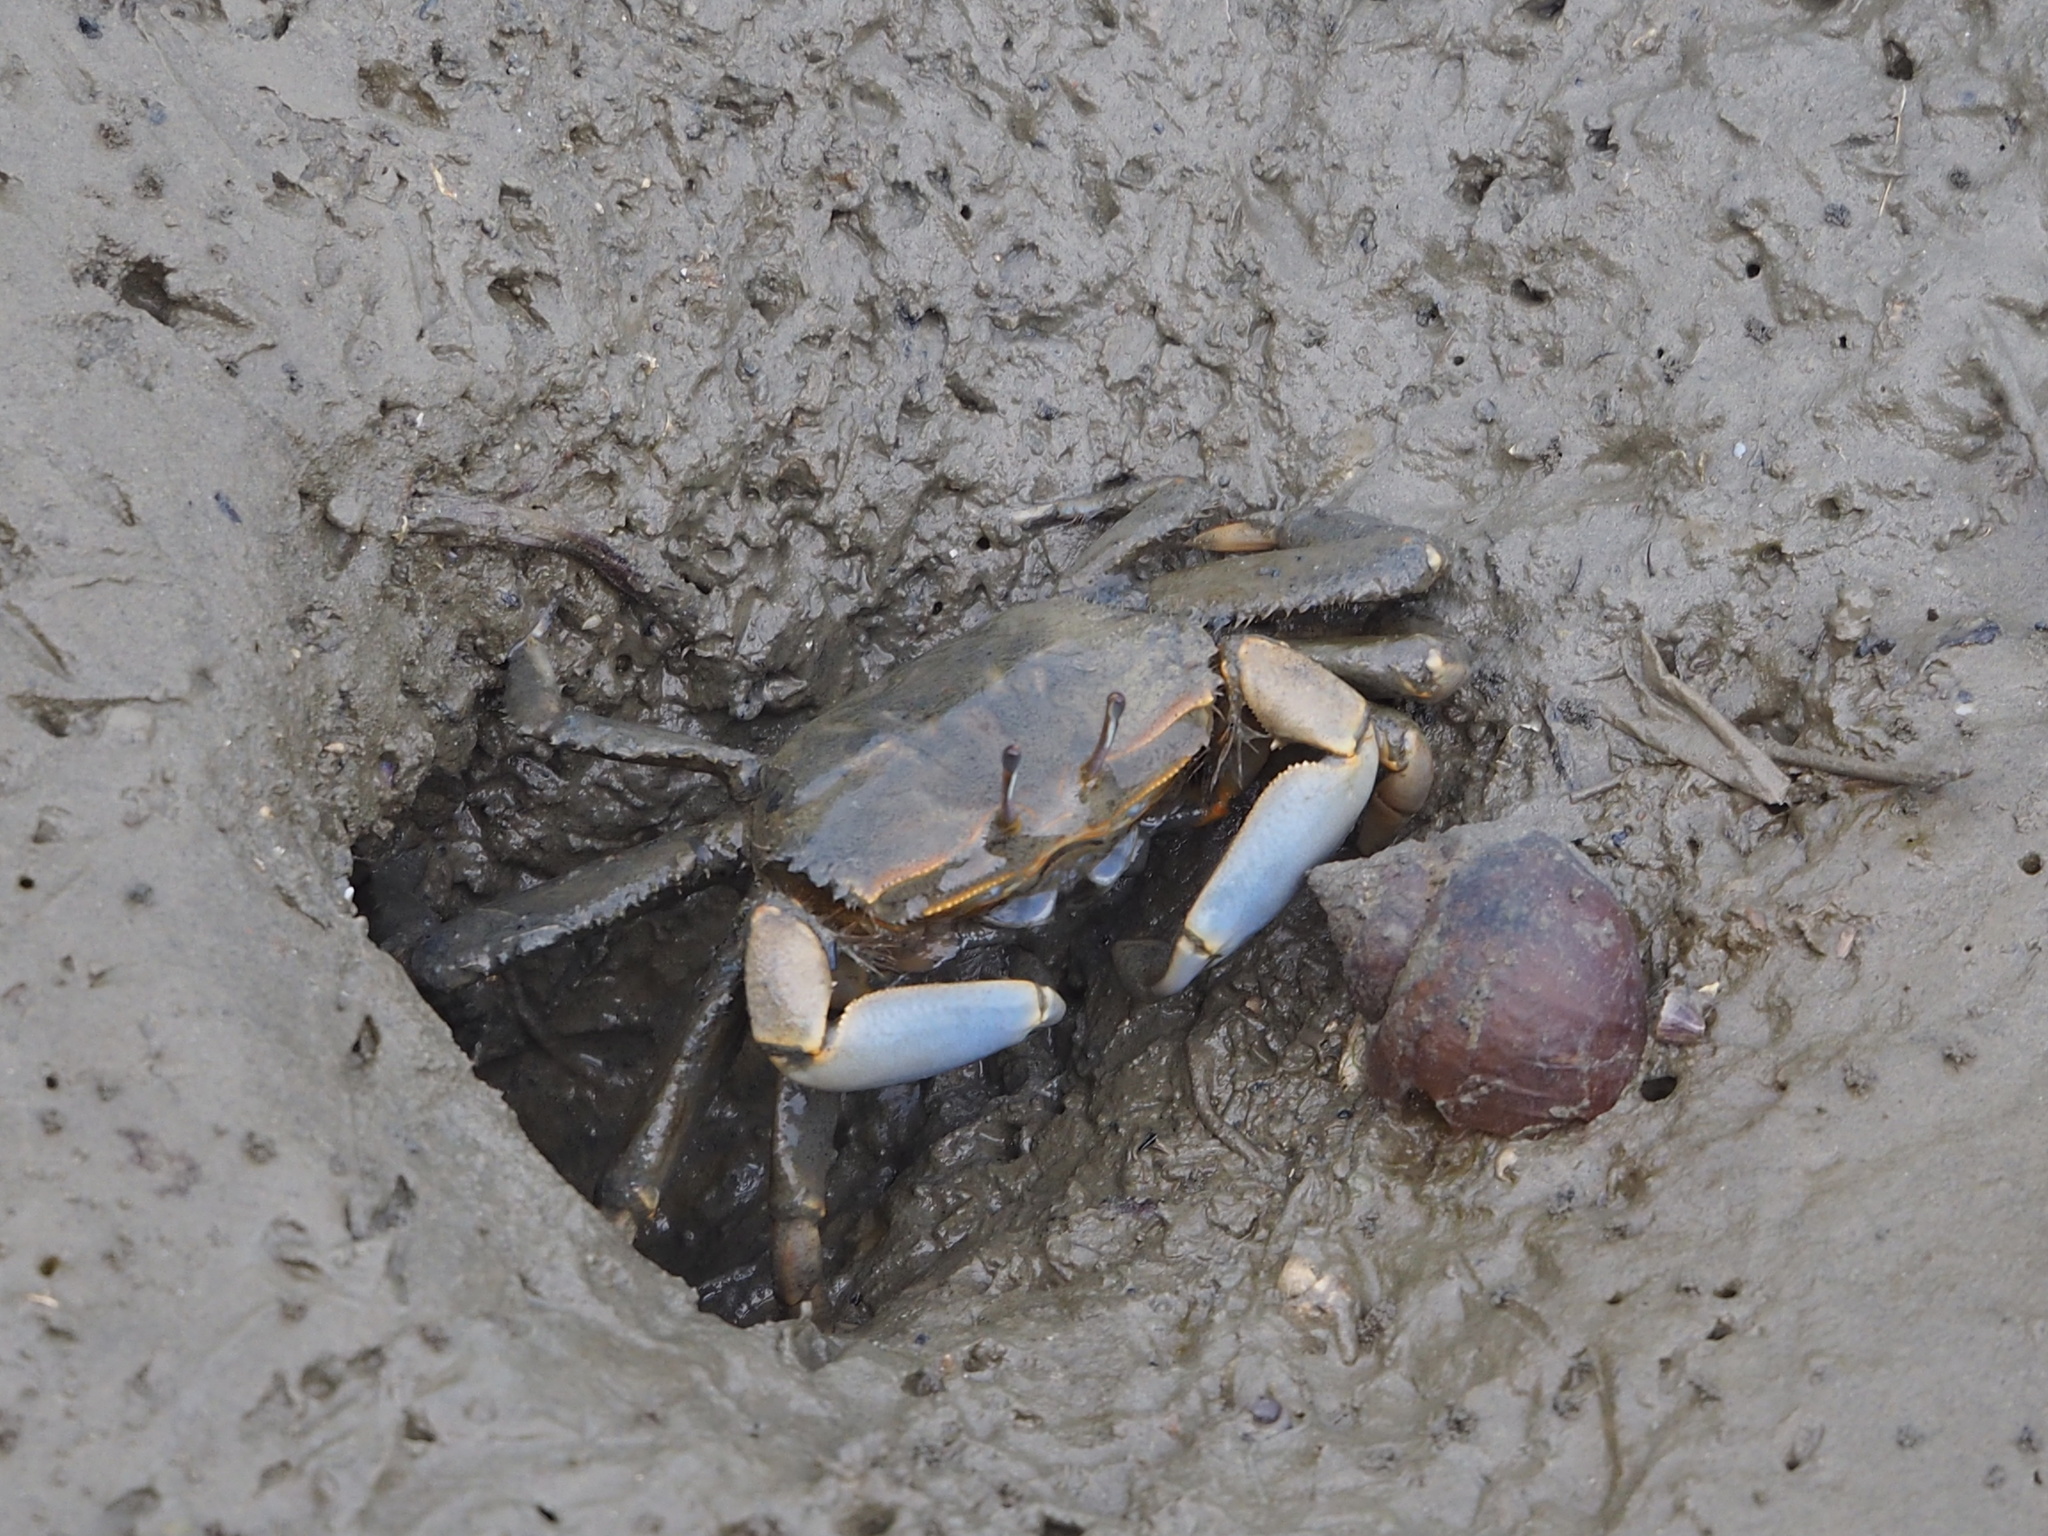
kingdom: Animalia
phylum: Arthropoda
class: Malacostraca
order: Decapoda
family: Macrophthalmidae
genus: Macrophthalmus
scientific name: Macrophthalmus tomentosus
